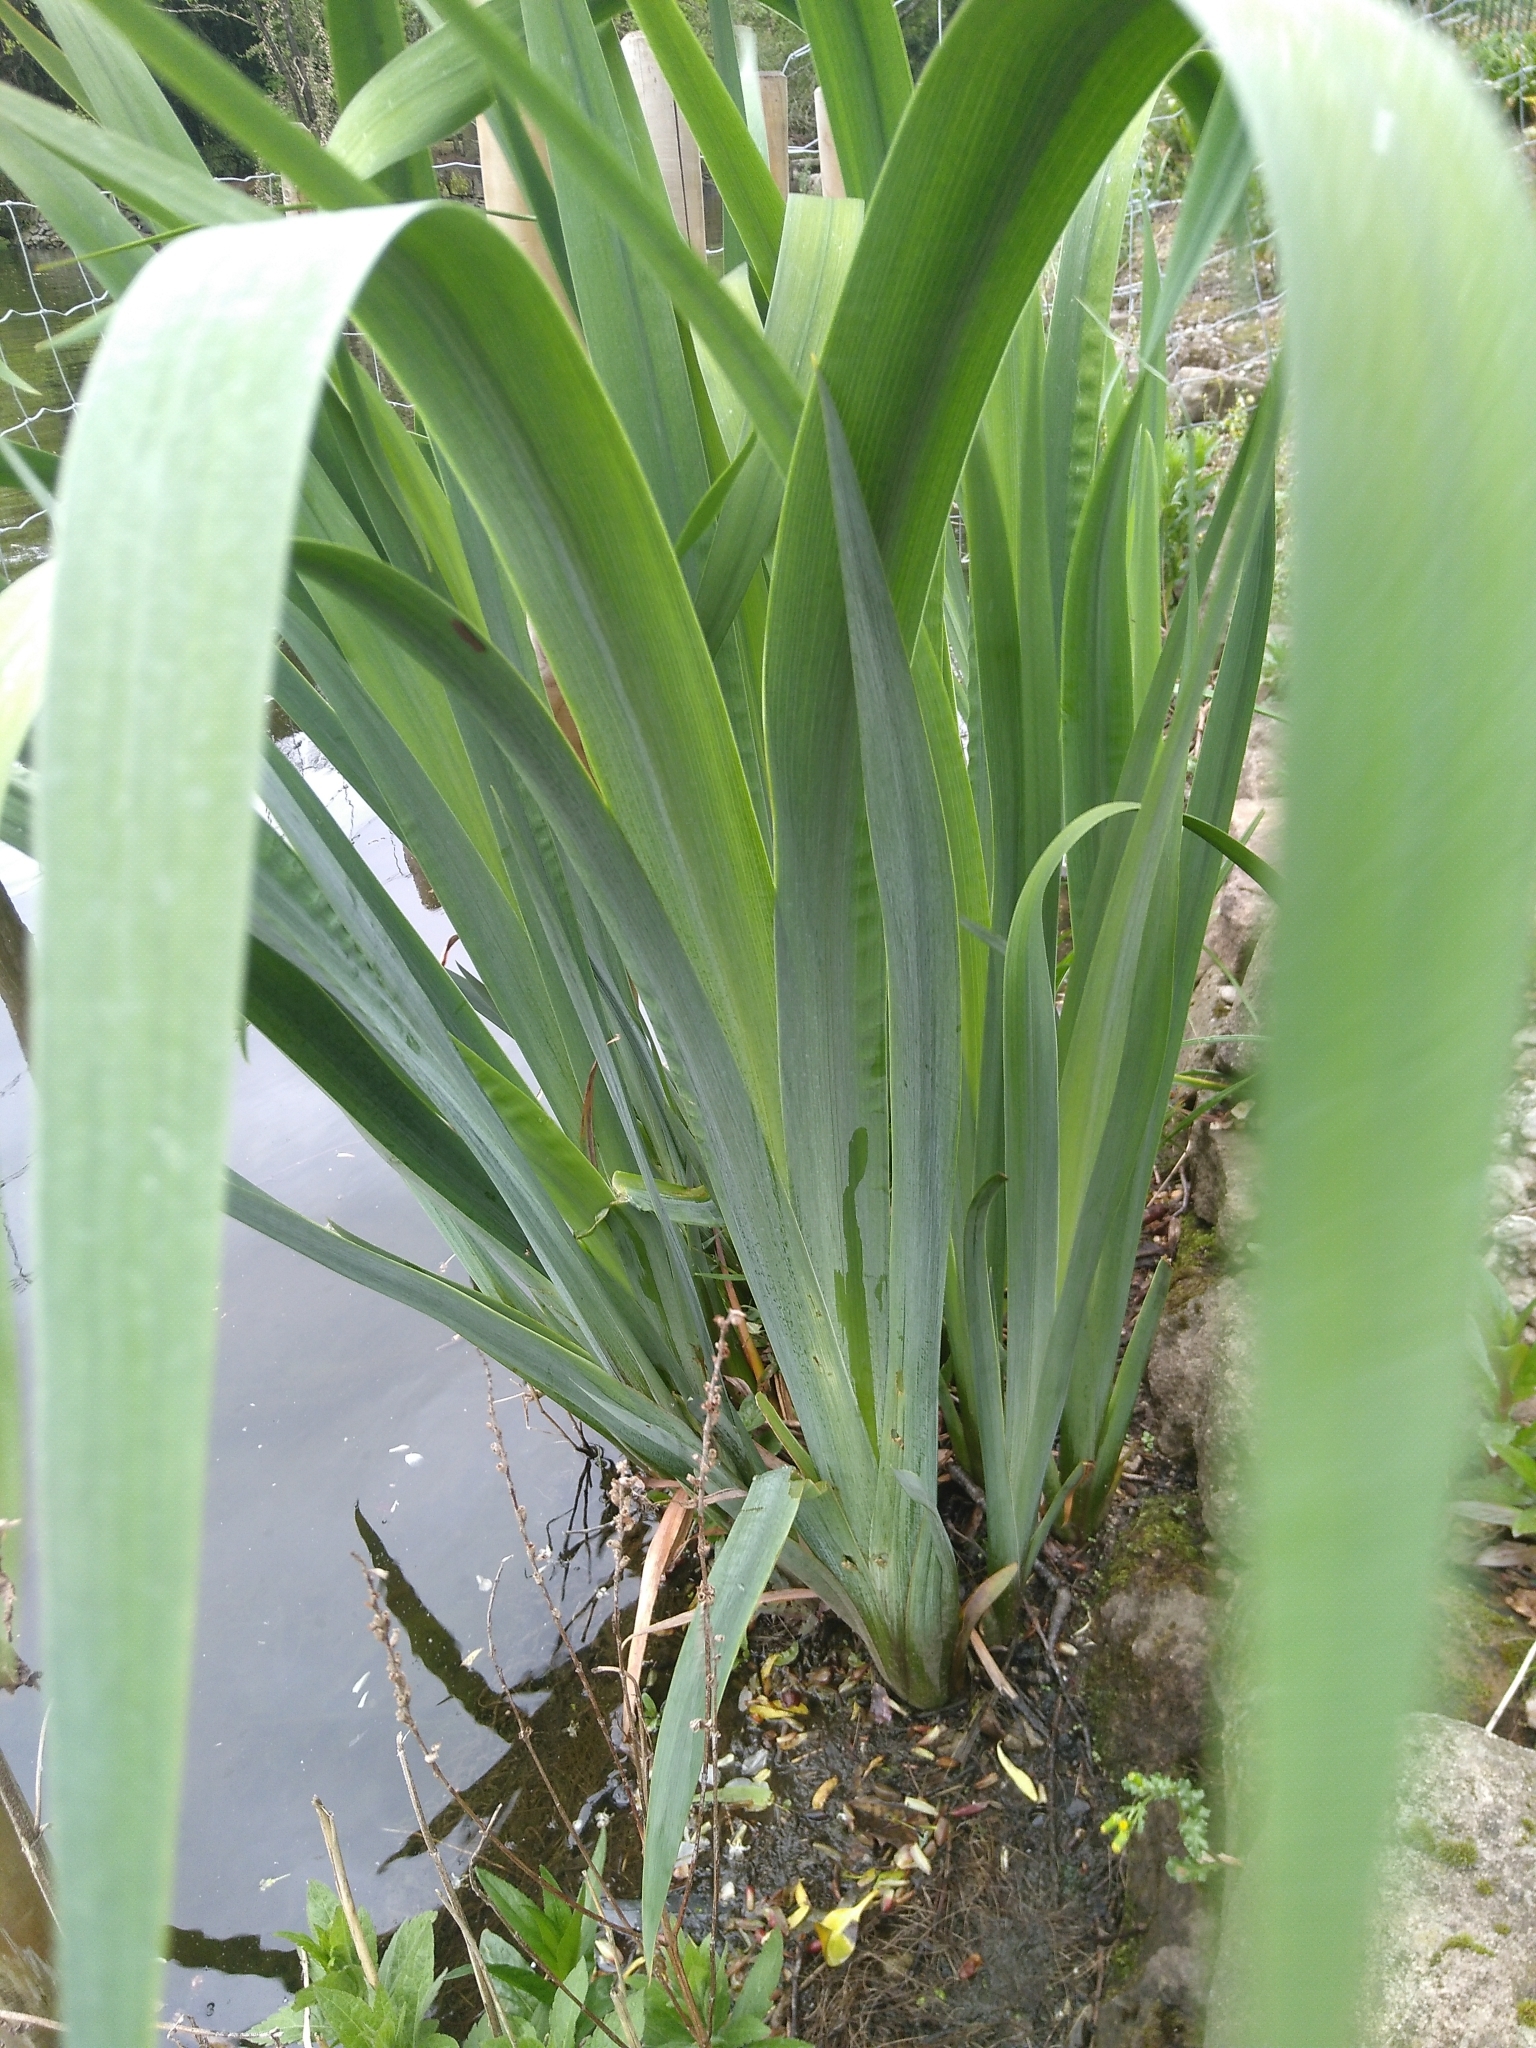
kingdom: Plantae
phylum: Tracheophyta
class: Liliopsida
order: Asparagales
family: Iridaceae
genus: Iris
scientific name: Iris pseudacorus
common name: Yellow flag
